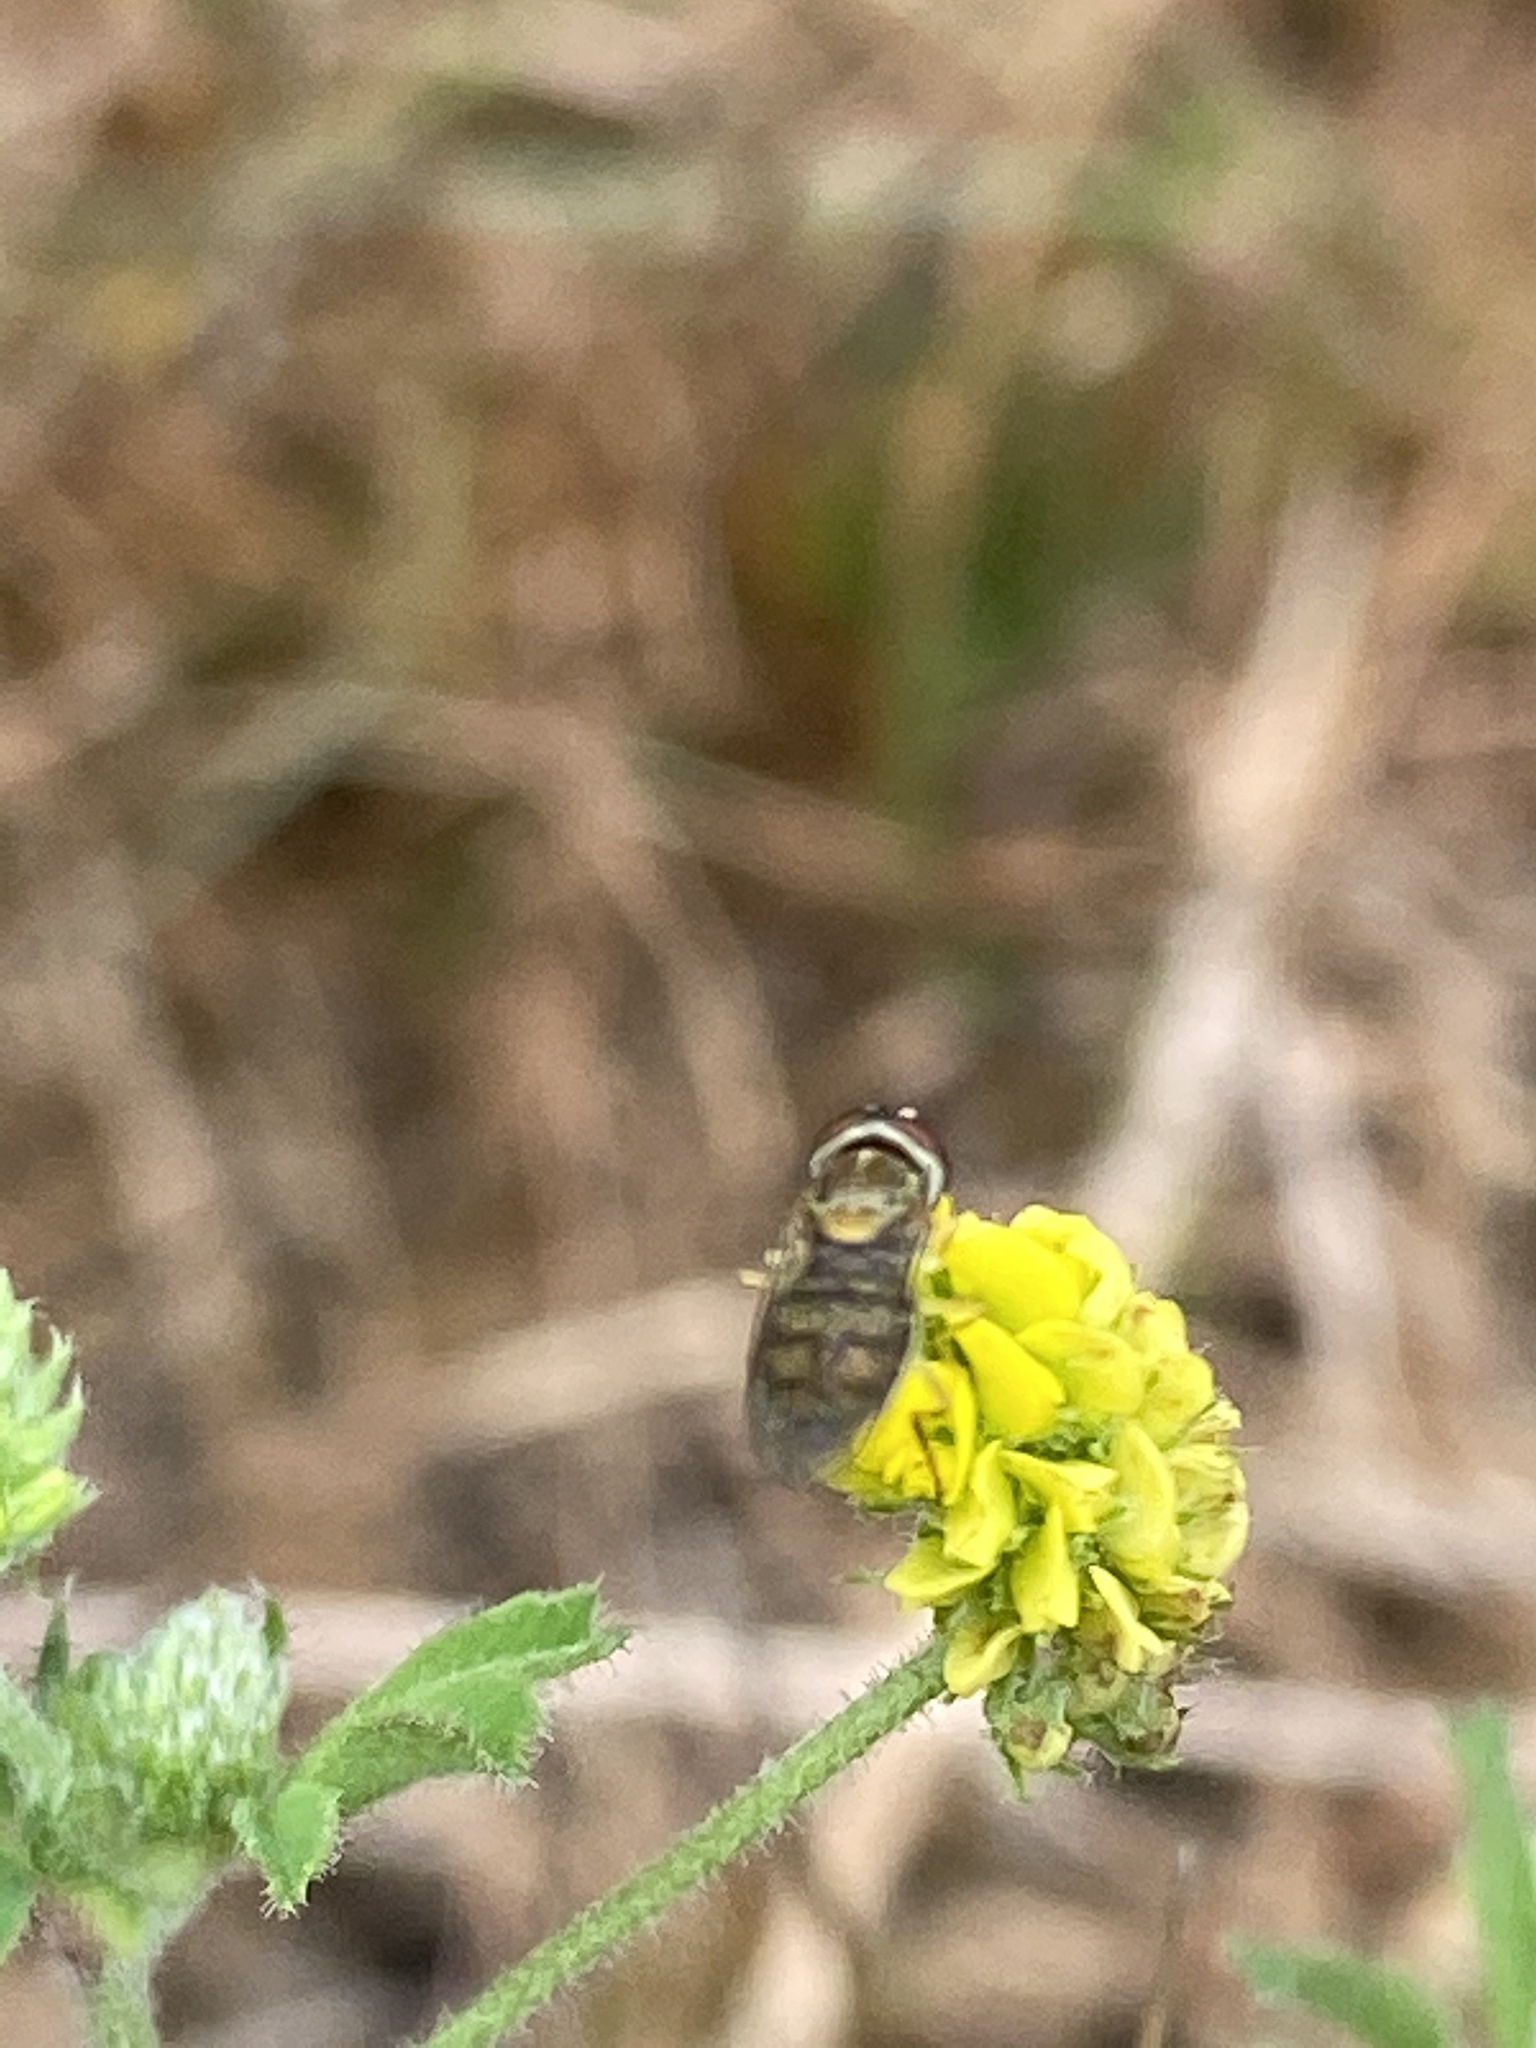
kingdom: Animalia
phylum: Arthropoda
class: Insecta
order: Diptera
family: Syrphidae
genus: Toxomerus
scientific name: Toxomerus marginatus
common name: Syrphid fly
